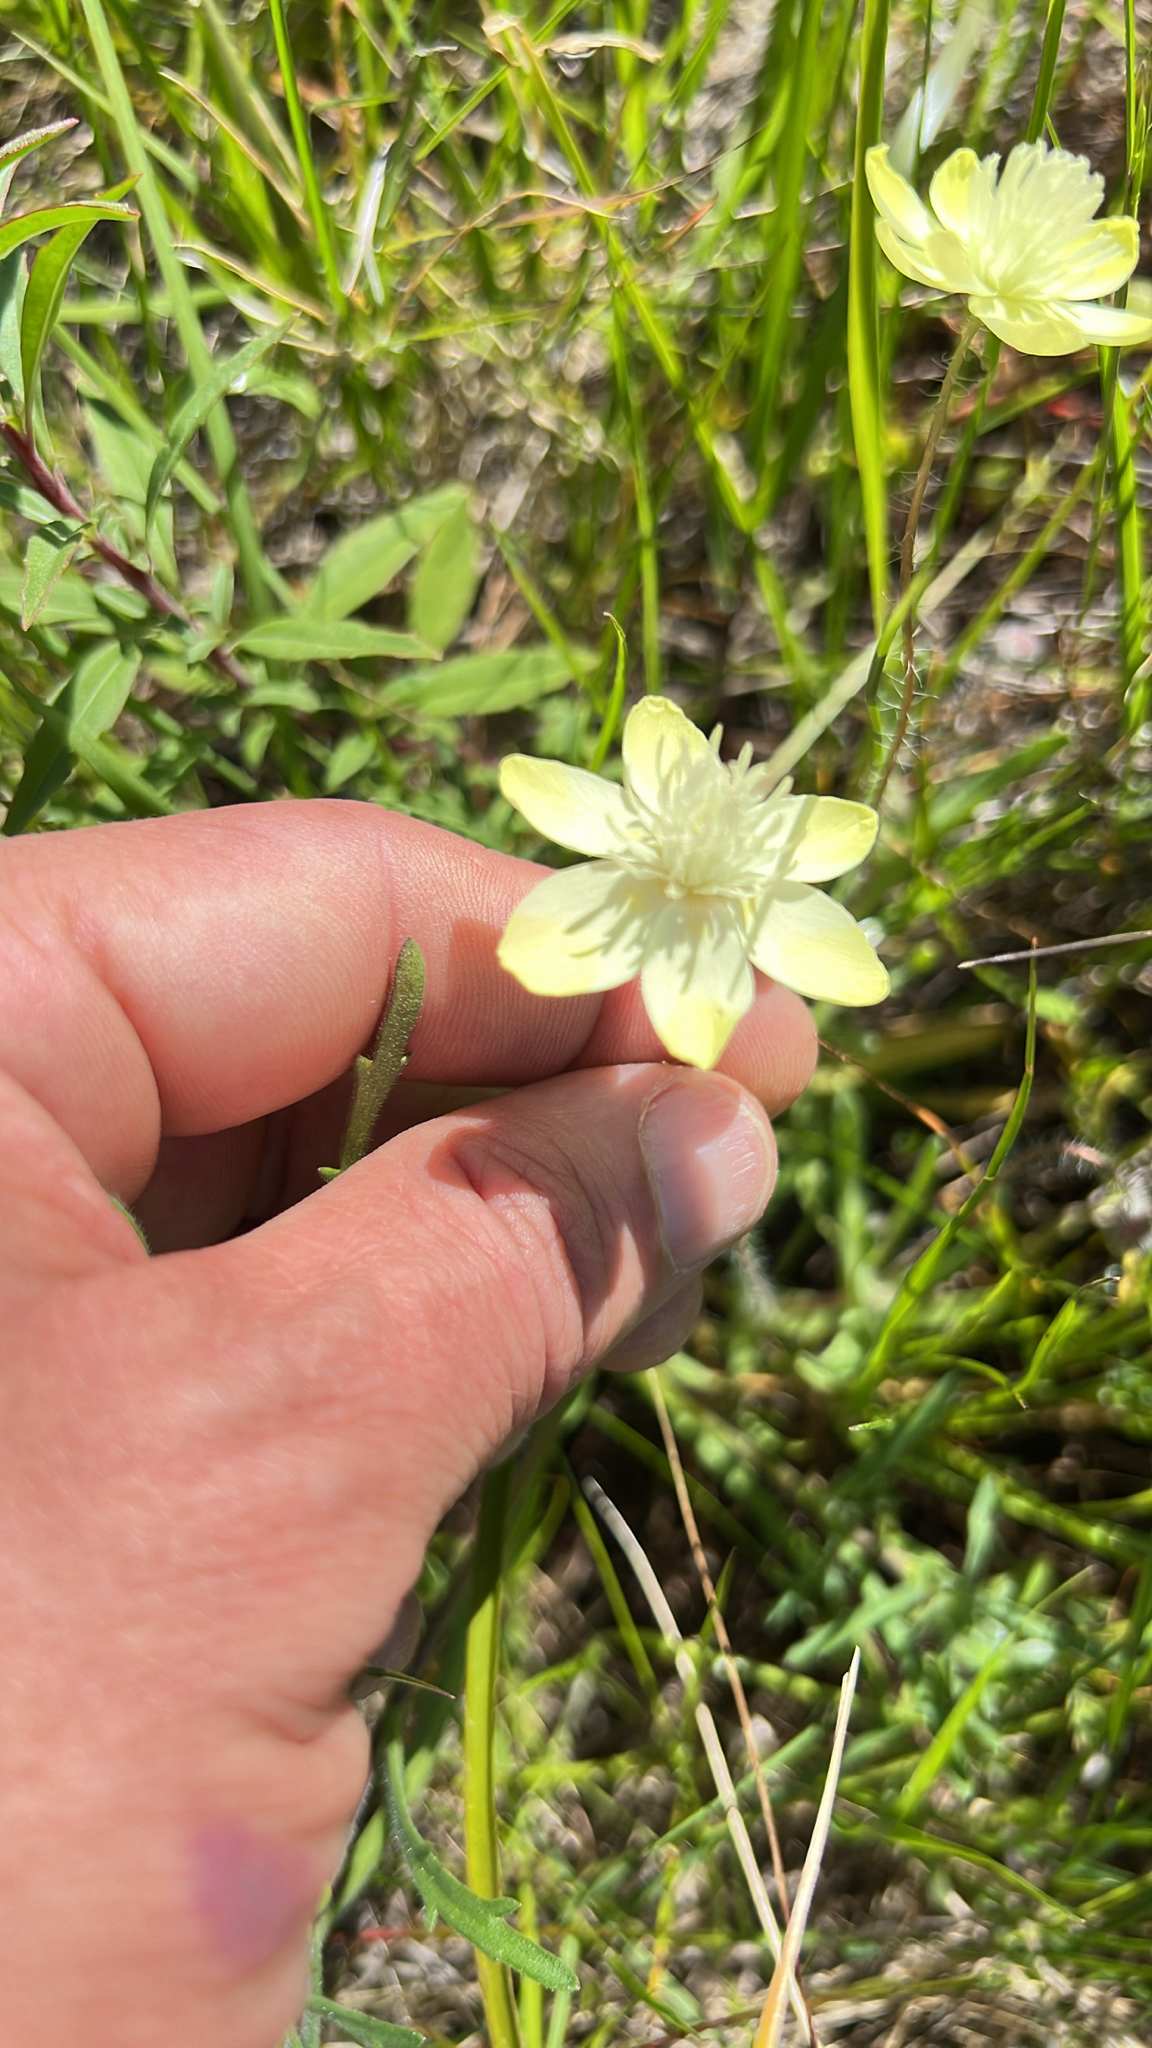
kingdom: Plantae
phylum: Tracheophyta
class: Magnoliopsida
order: Ranunculales
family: Papaveraceae
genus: Platystemon
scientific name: Platystemon californicus
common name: Cream-cups
